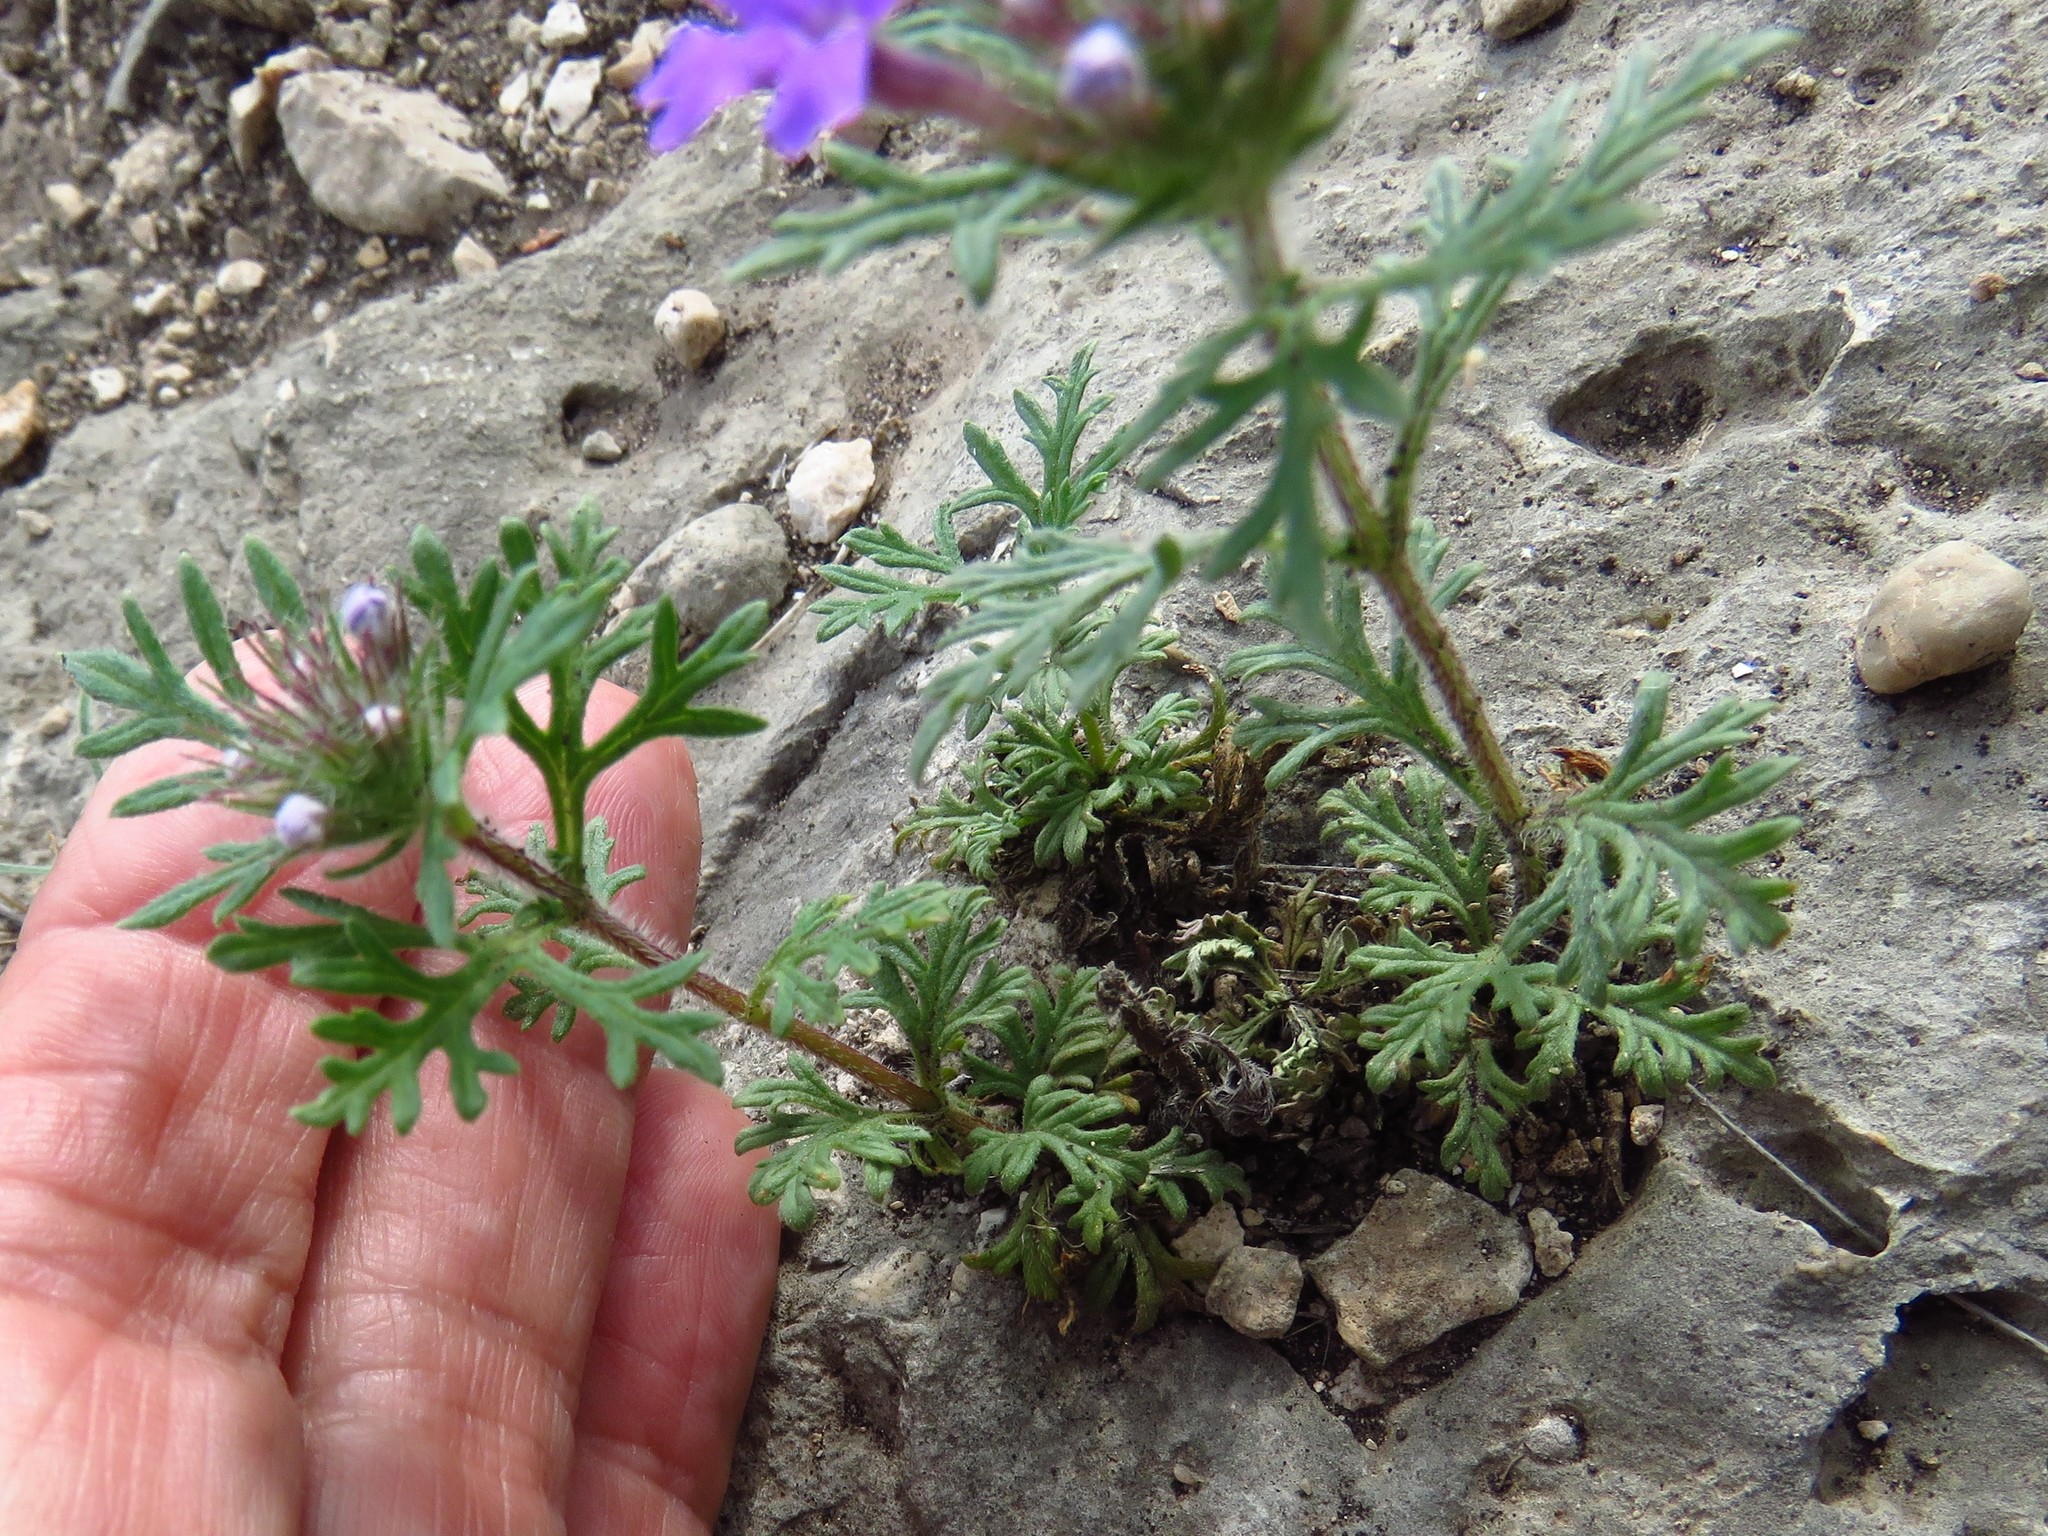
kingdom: Plantae
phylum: Tracheophyta
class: Magnoliopsida
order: Lamiales
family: Verbenaceae
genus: Verbena
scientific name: Verbena bipinnatifida
